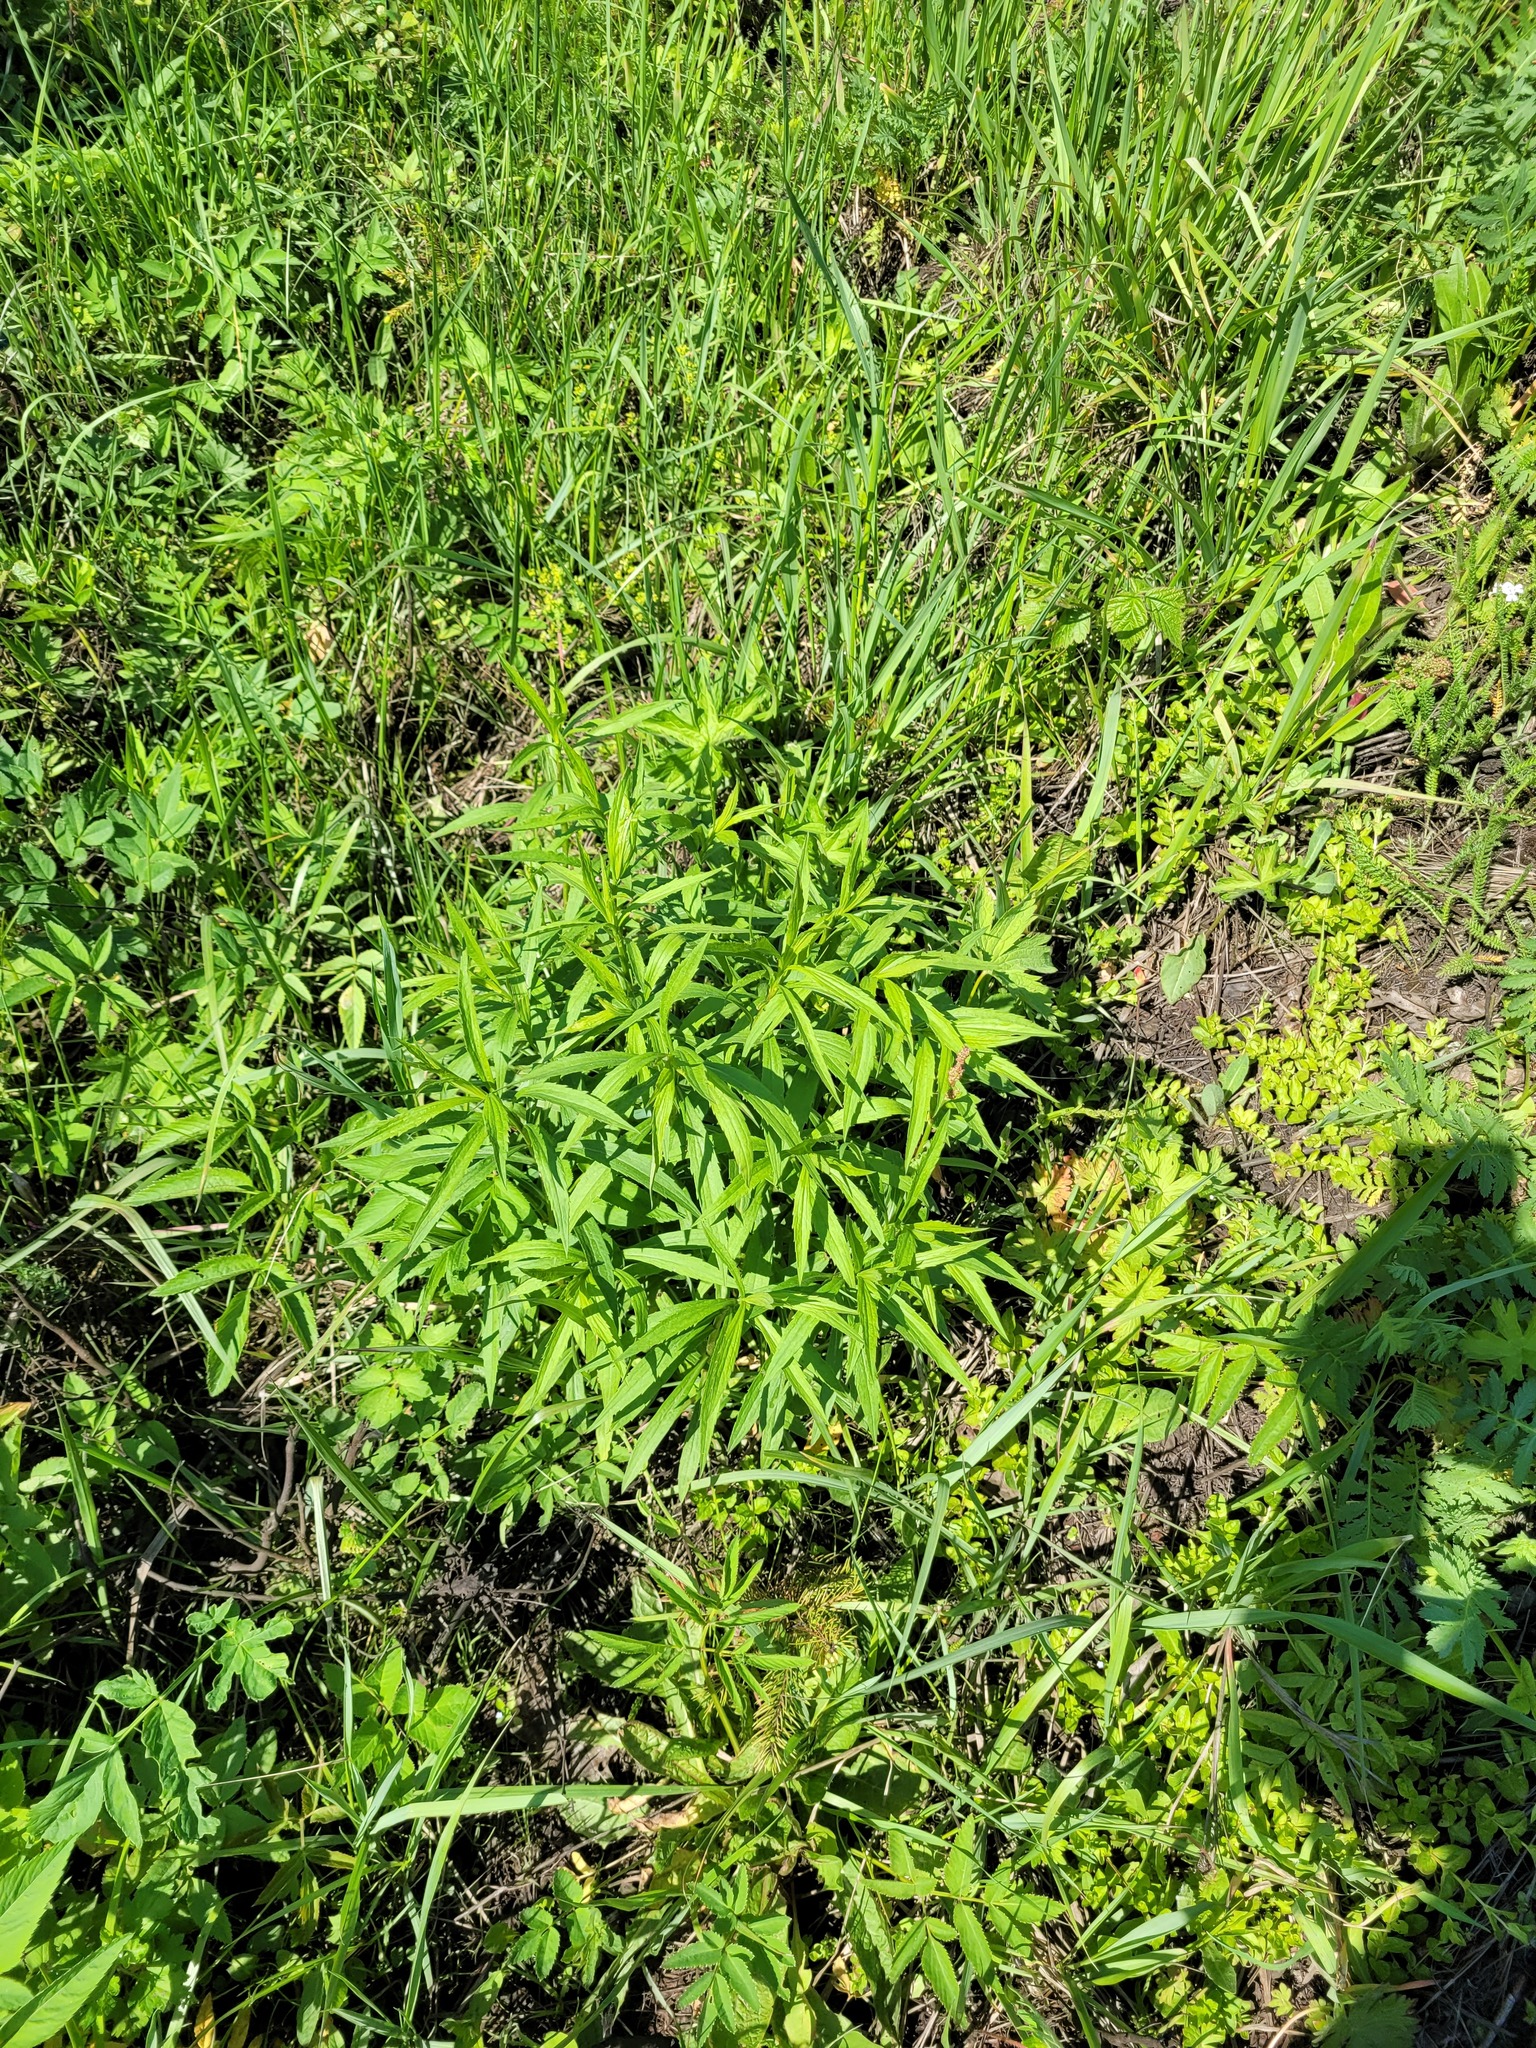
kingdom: Plantae
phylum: Tracheophyta
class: Magnoliopsida
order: Asterales
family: Asteraceae
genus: Solidago
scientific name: Solidago canadensis
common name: Canada goldenrod
